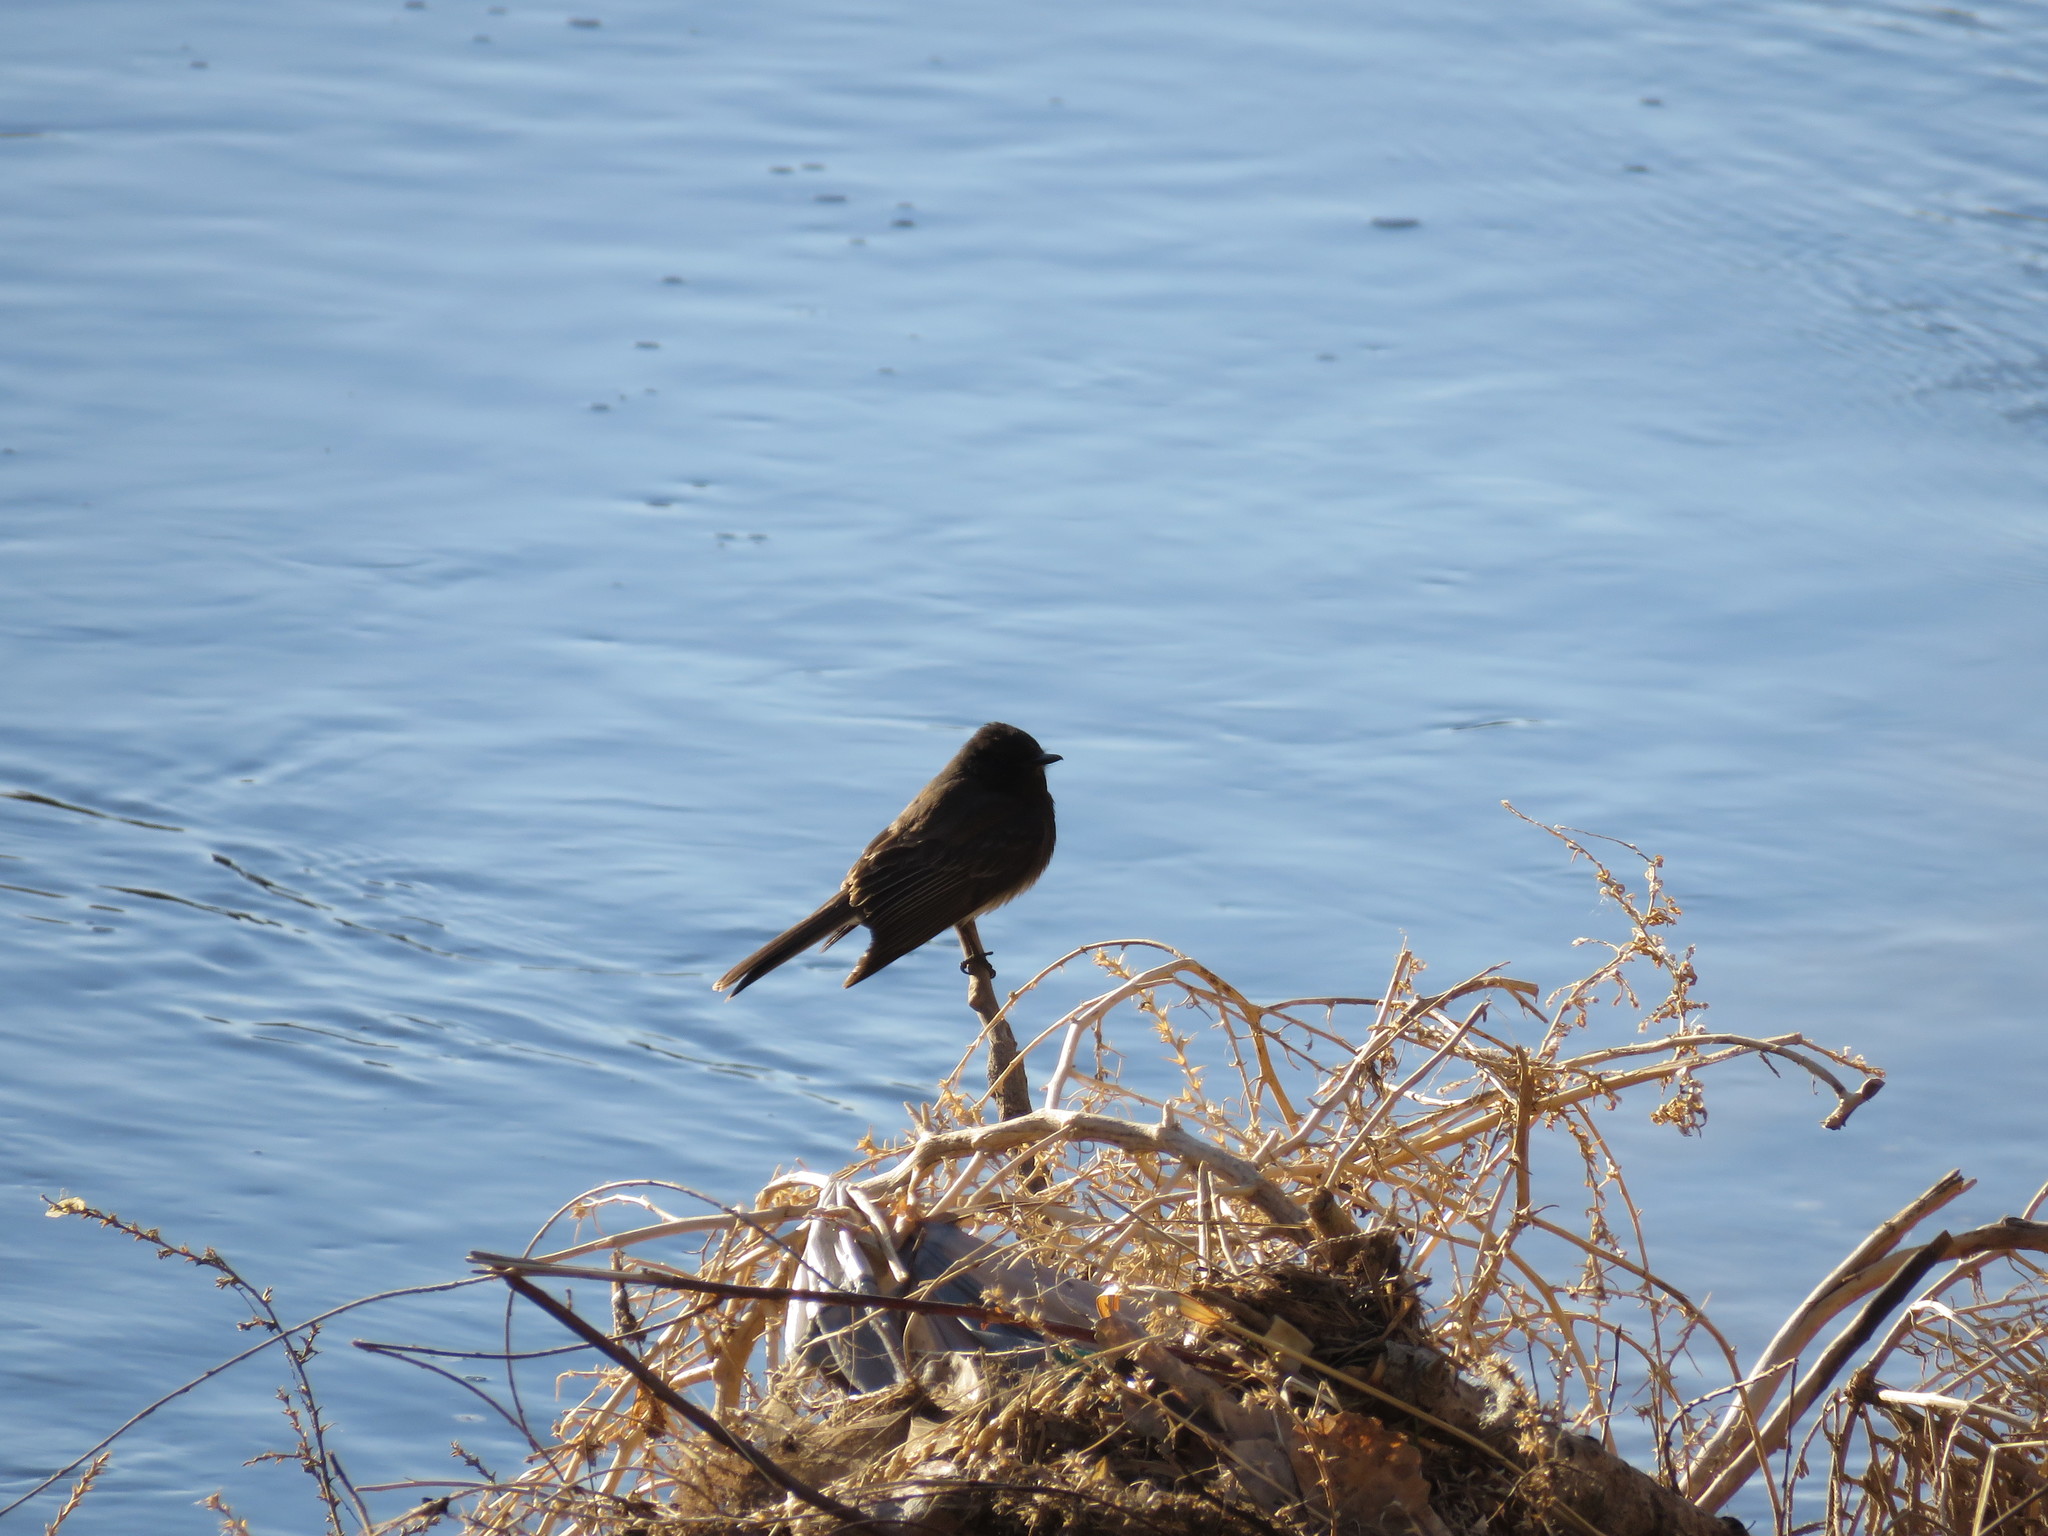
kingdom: Animalia
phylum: Chordata
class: Aves
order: Passeriformes
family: Tyrannidae
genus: Sayornis
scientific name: Sayornis nigricans
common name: Black phoebe
